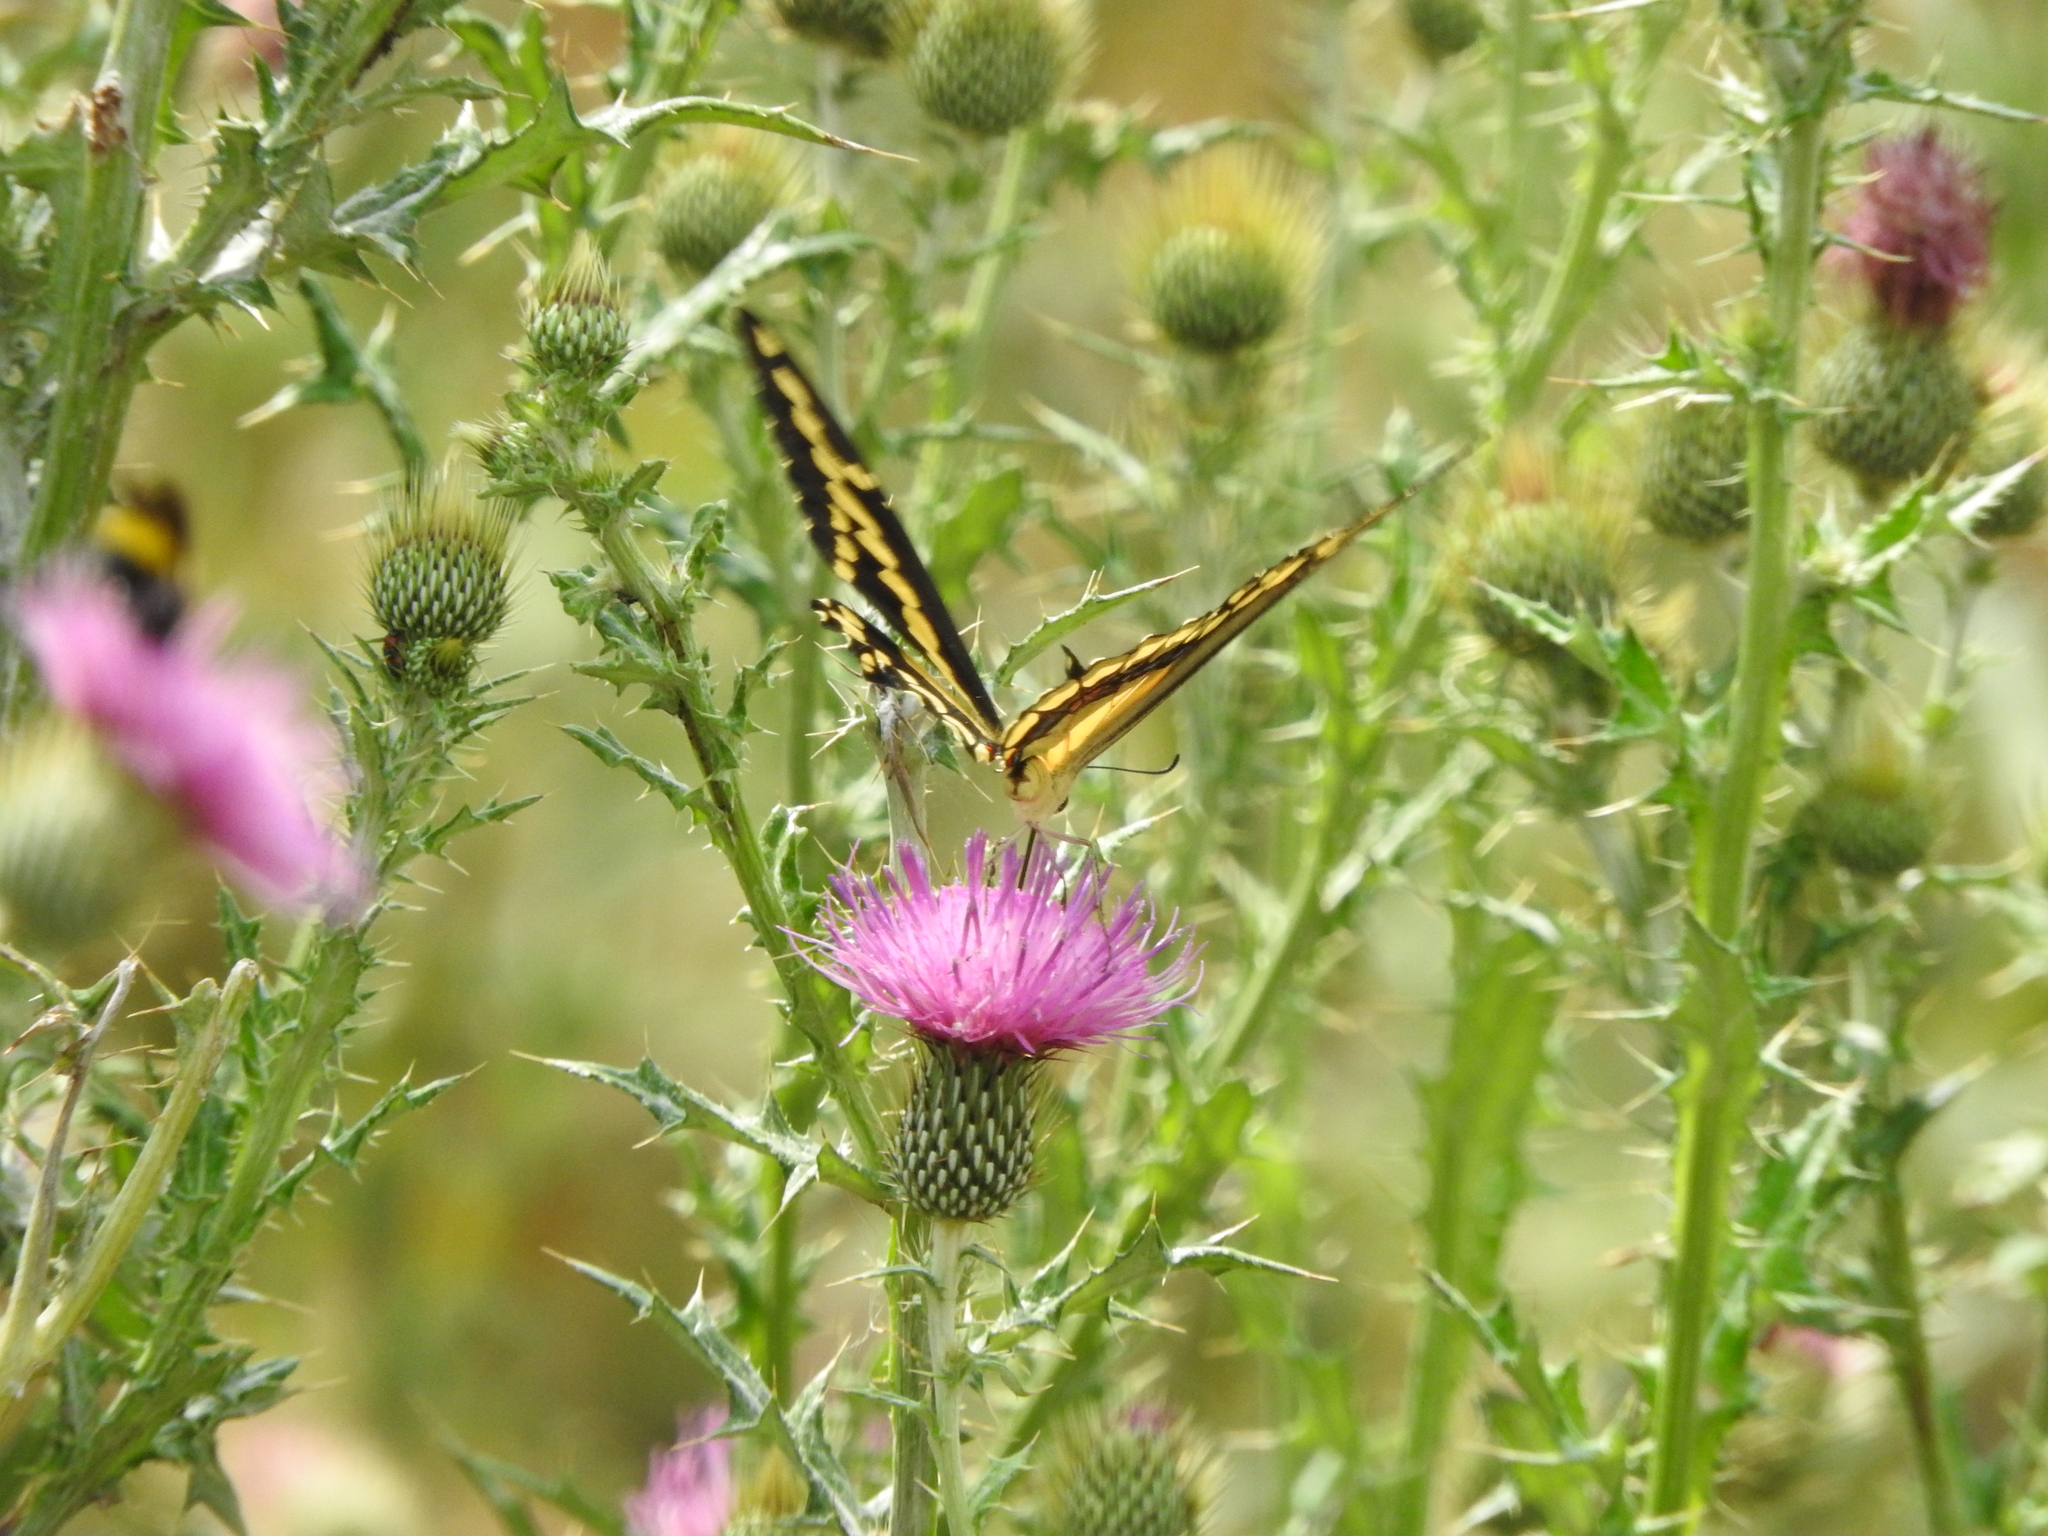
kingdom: Animalia
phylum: Arthropoda
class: Insecta
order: Lepidoptera
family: Papilionidae
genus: Papilio
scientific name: Papilio rumiko
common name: Western giant swallowtail
